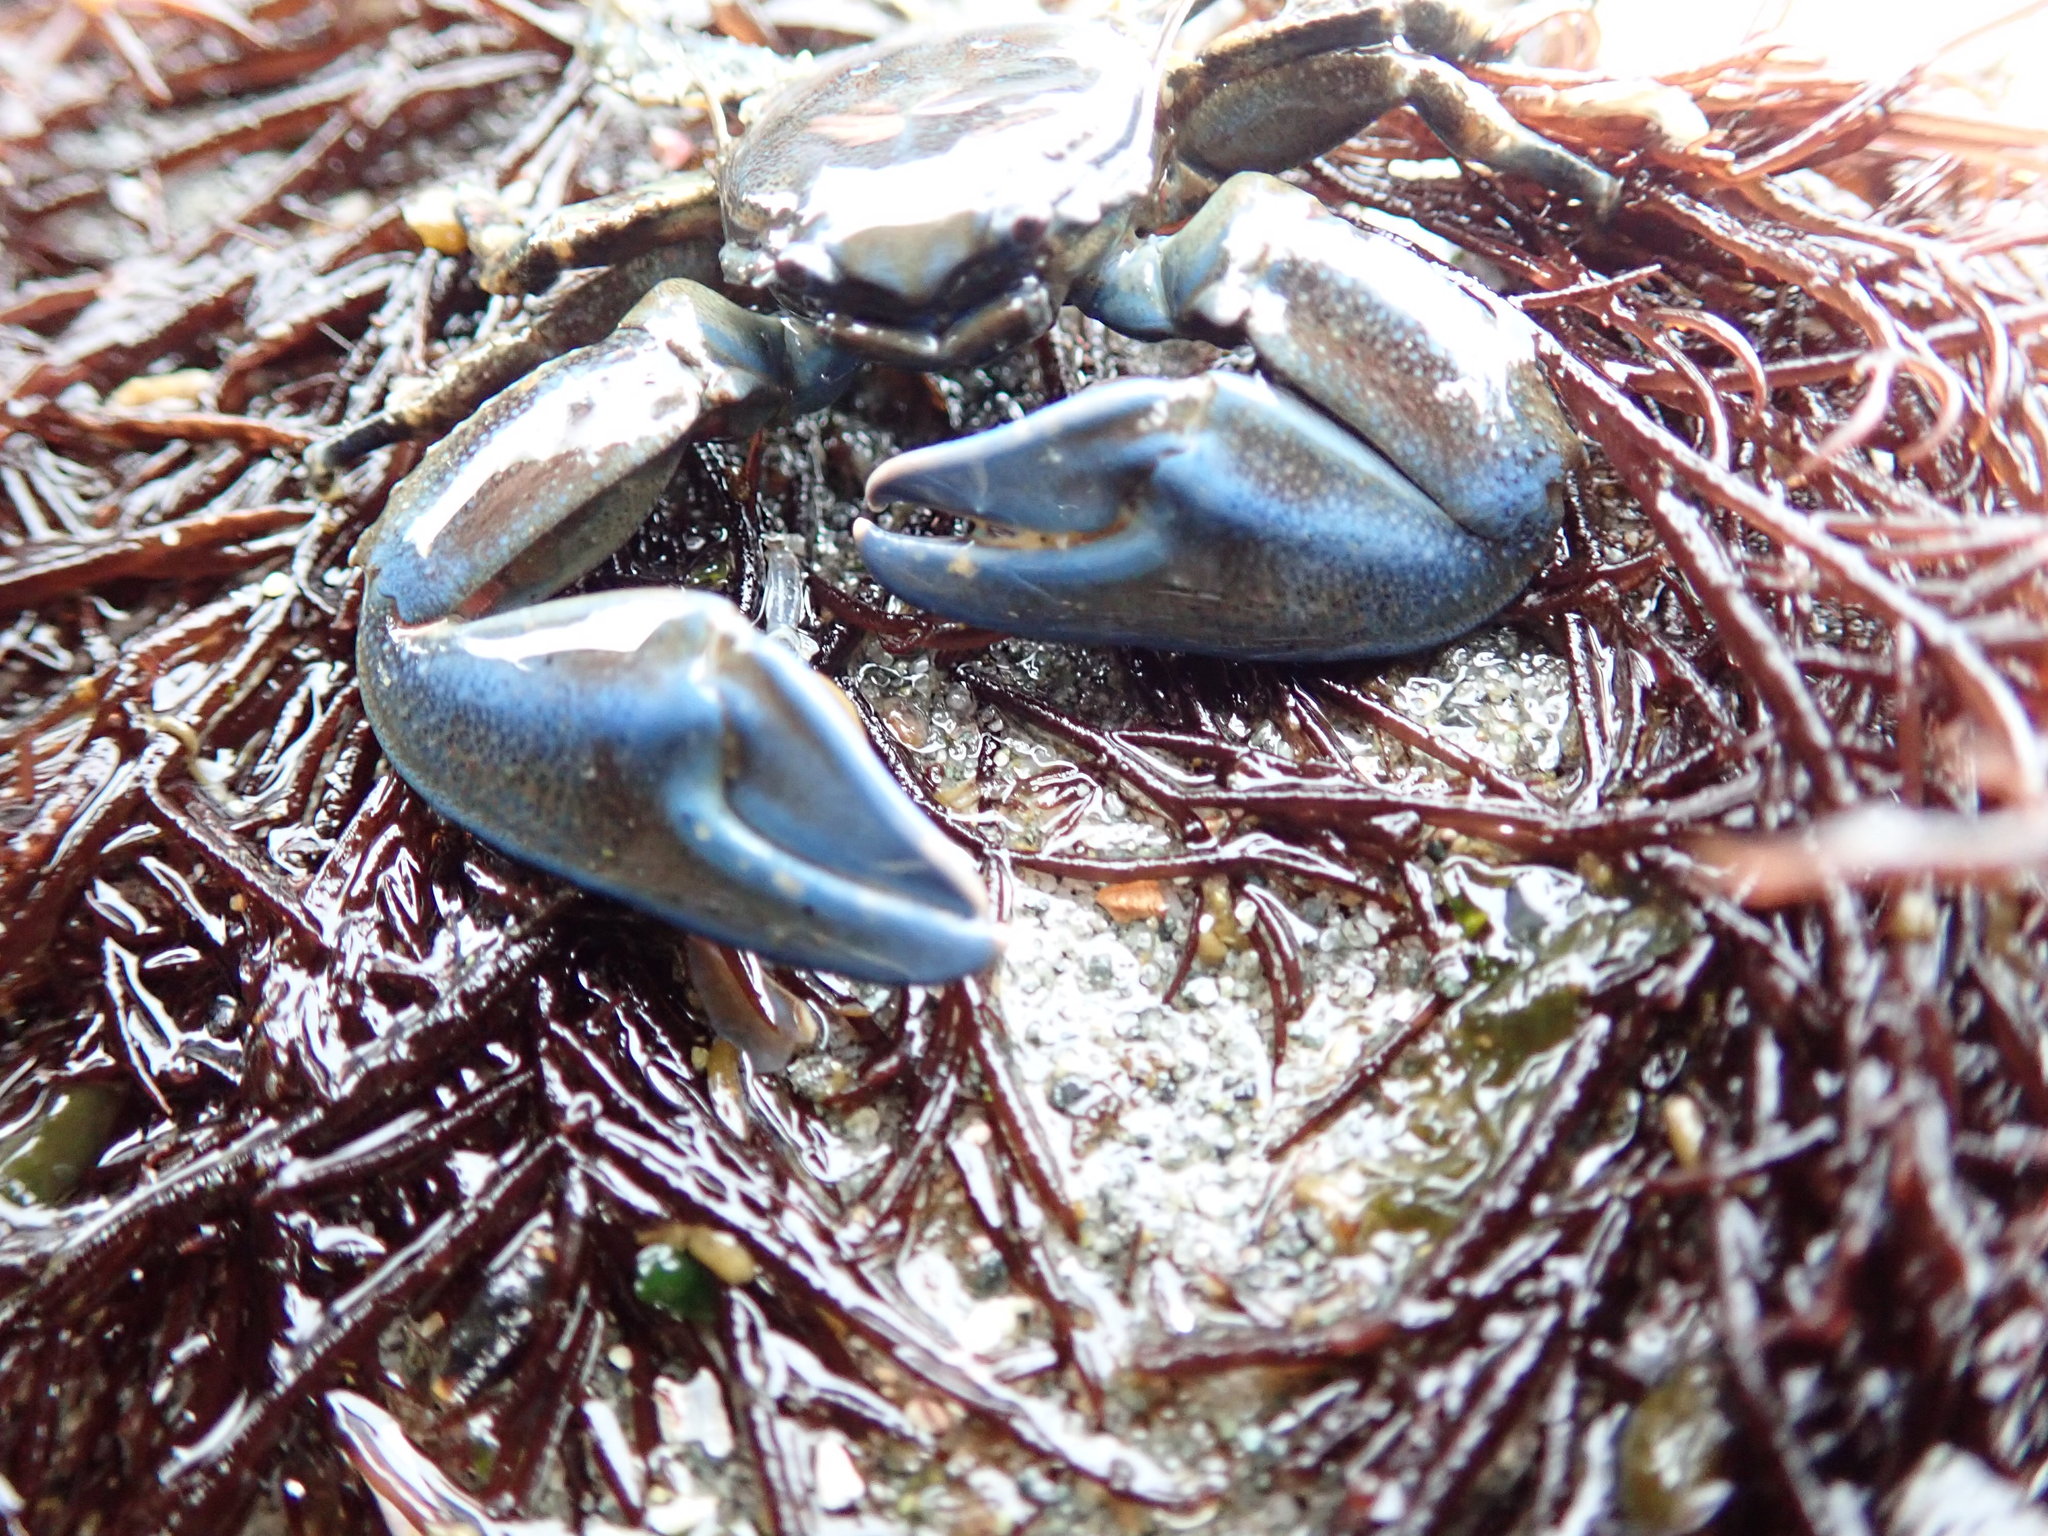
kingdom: Animalia
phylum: Arthropoda
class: Malacostraca
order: Decapoda
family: Porcellanidae
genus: Petrolisthes
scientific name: Petrolisthes eriomerus
